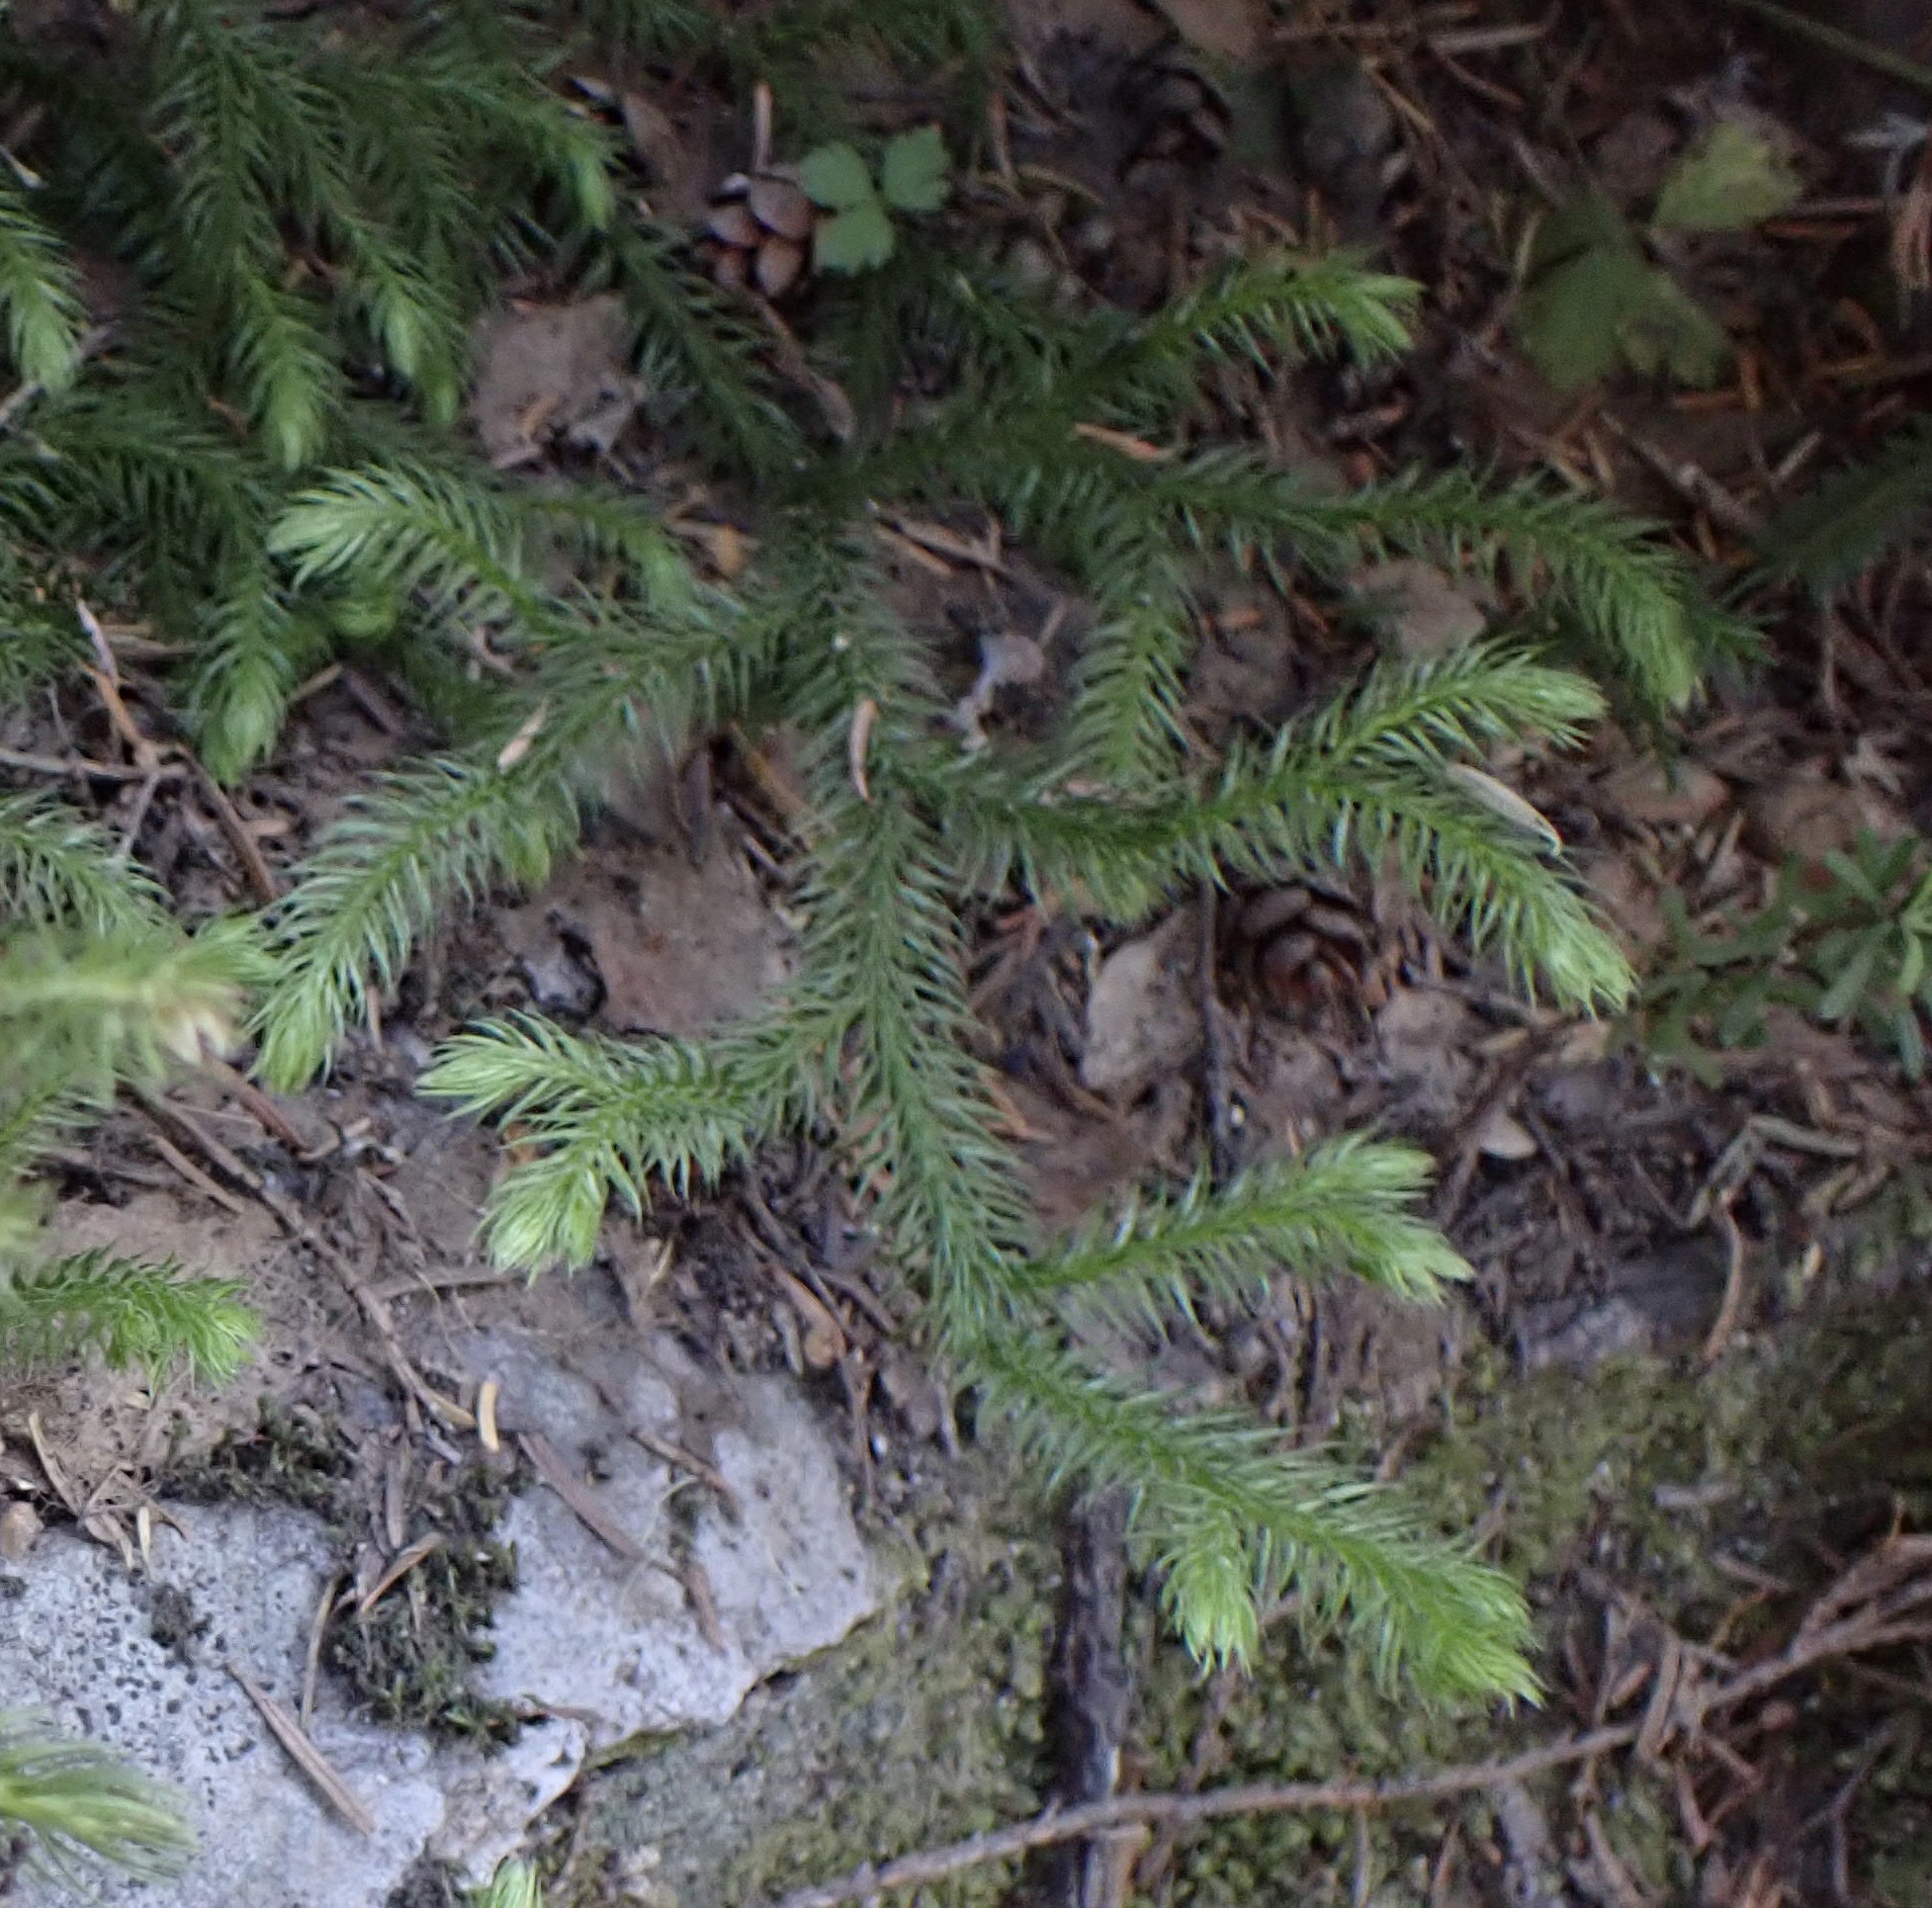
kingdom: Plantae
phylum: Tracheophyta
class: Lycopodiopsida
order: Lycopodiales
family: Lycopodiaceae
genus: Lycopodium
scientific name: Lycopodium clavatum
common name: Stag's-horn clubmoss
